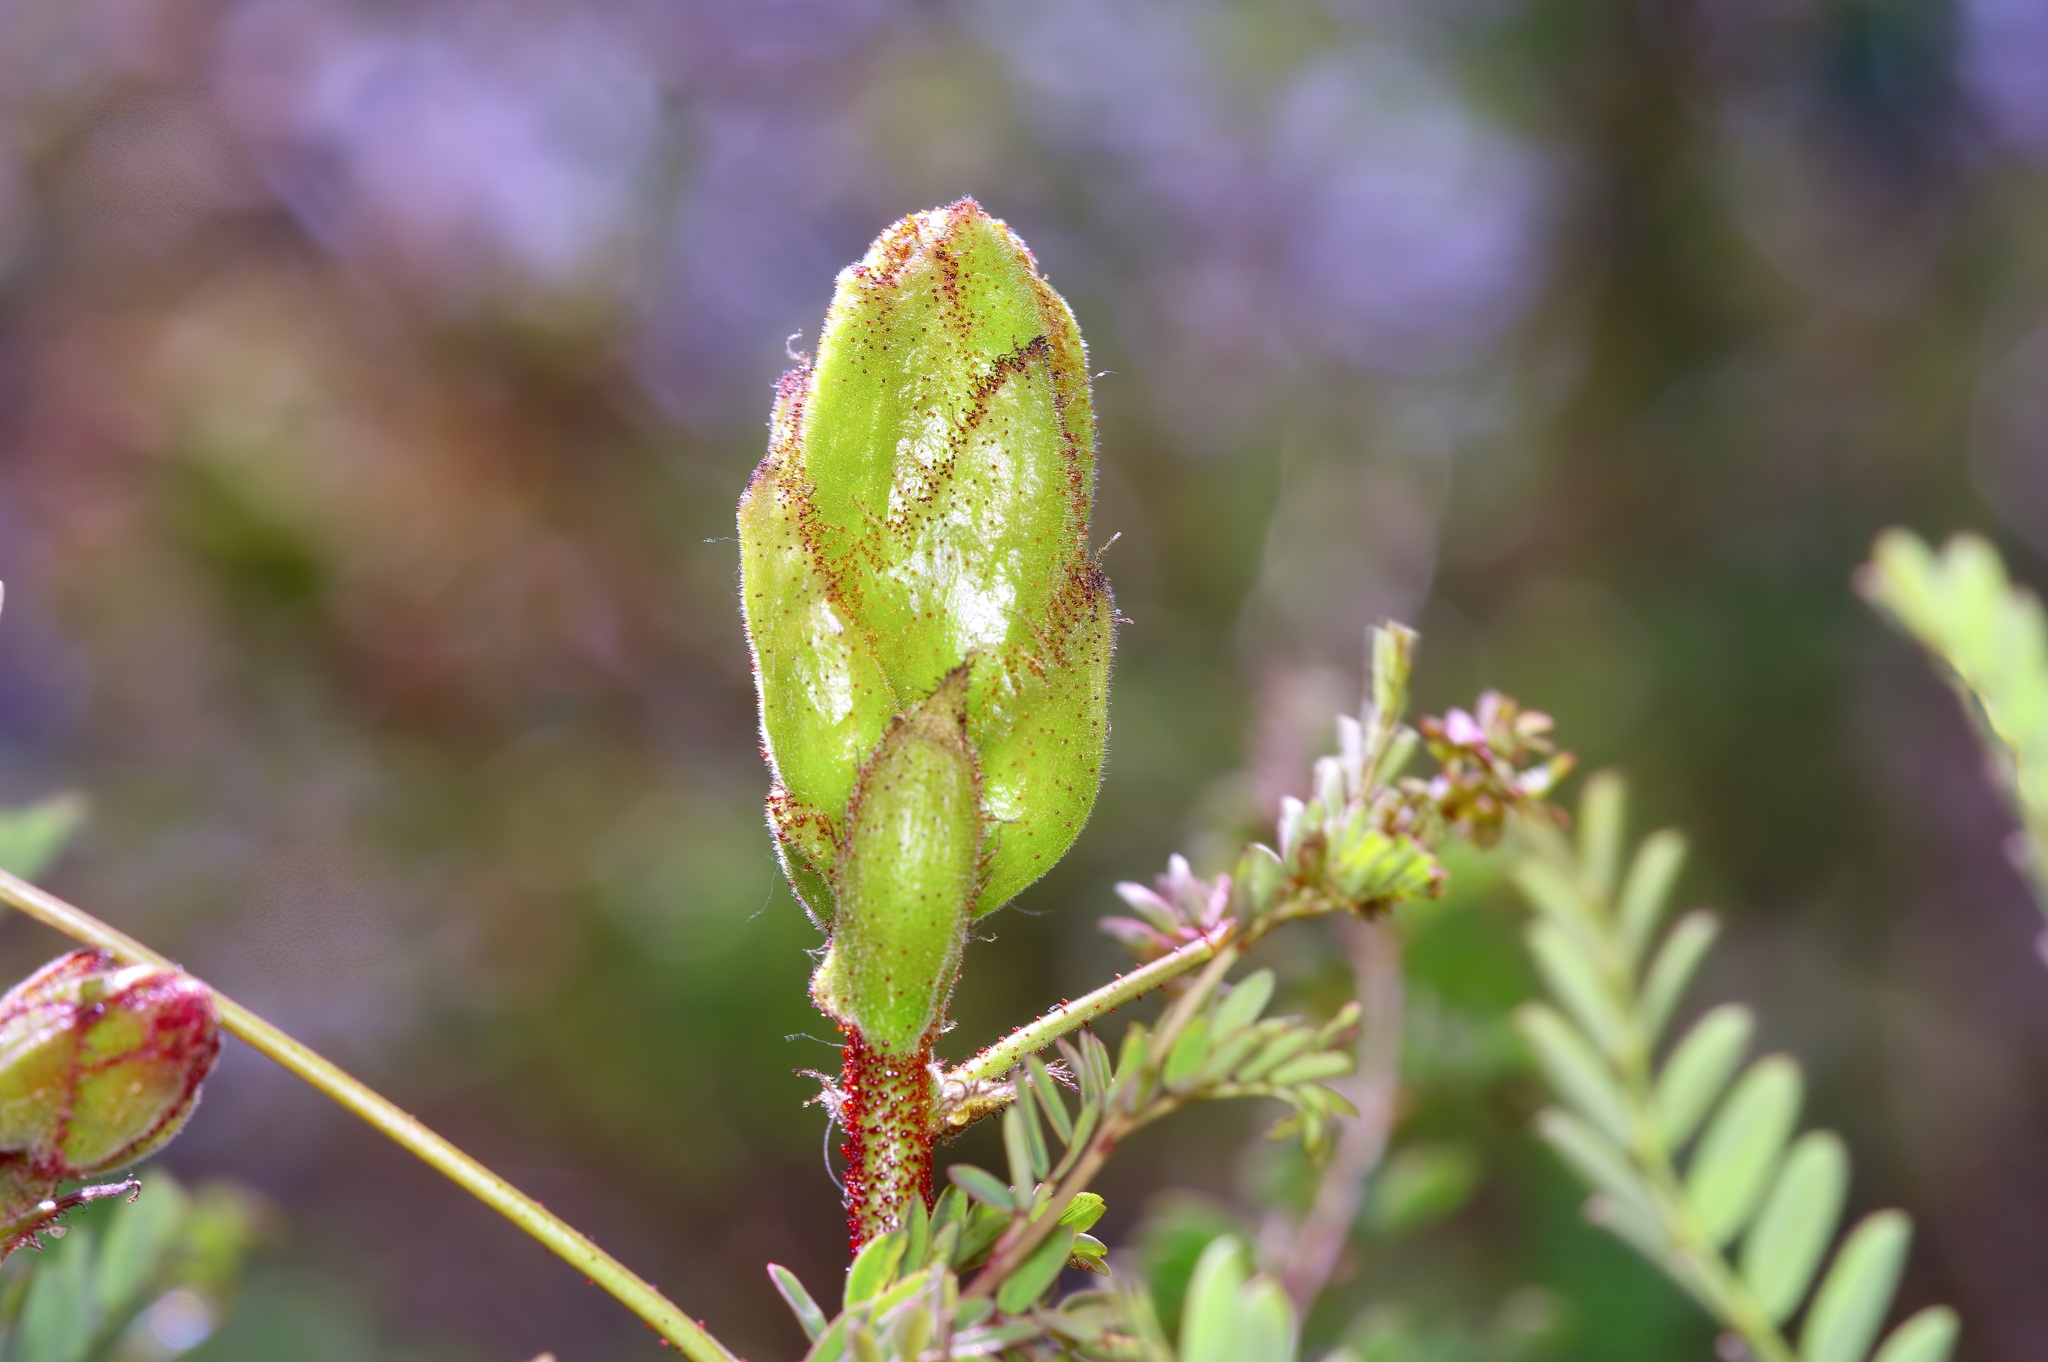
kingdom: Plantae
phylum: Tracheophyta
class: Magnoliopsida
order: Fabales
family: Fabaceae
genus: Erythrostemon
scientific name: Erythrostemon gilliesii
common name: Bird-of-paradise shrub
